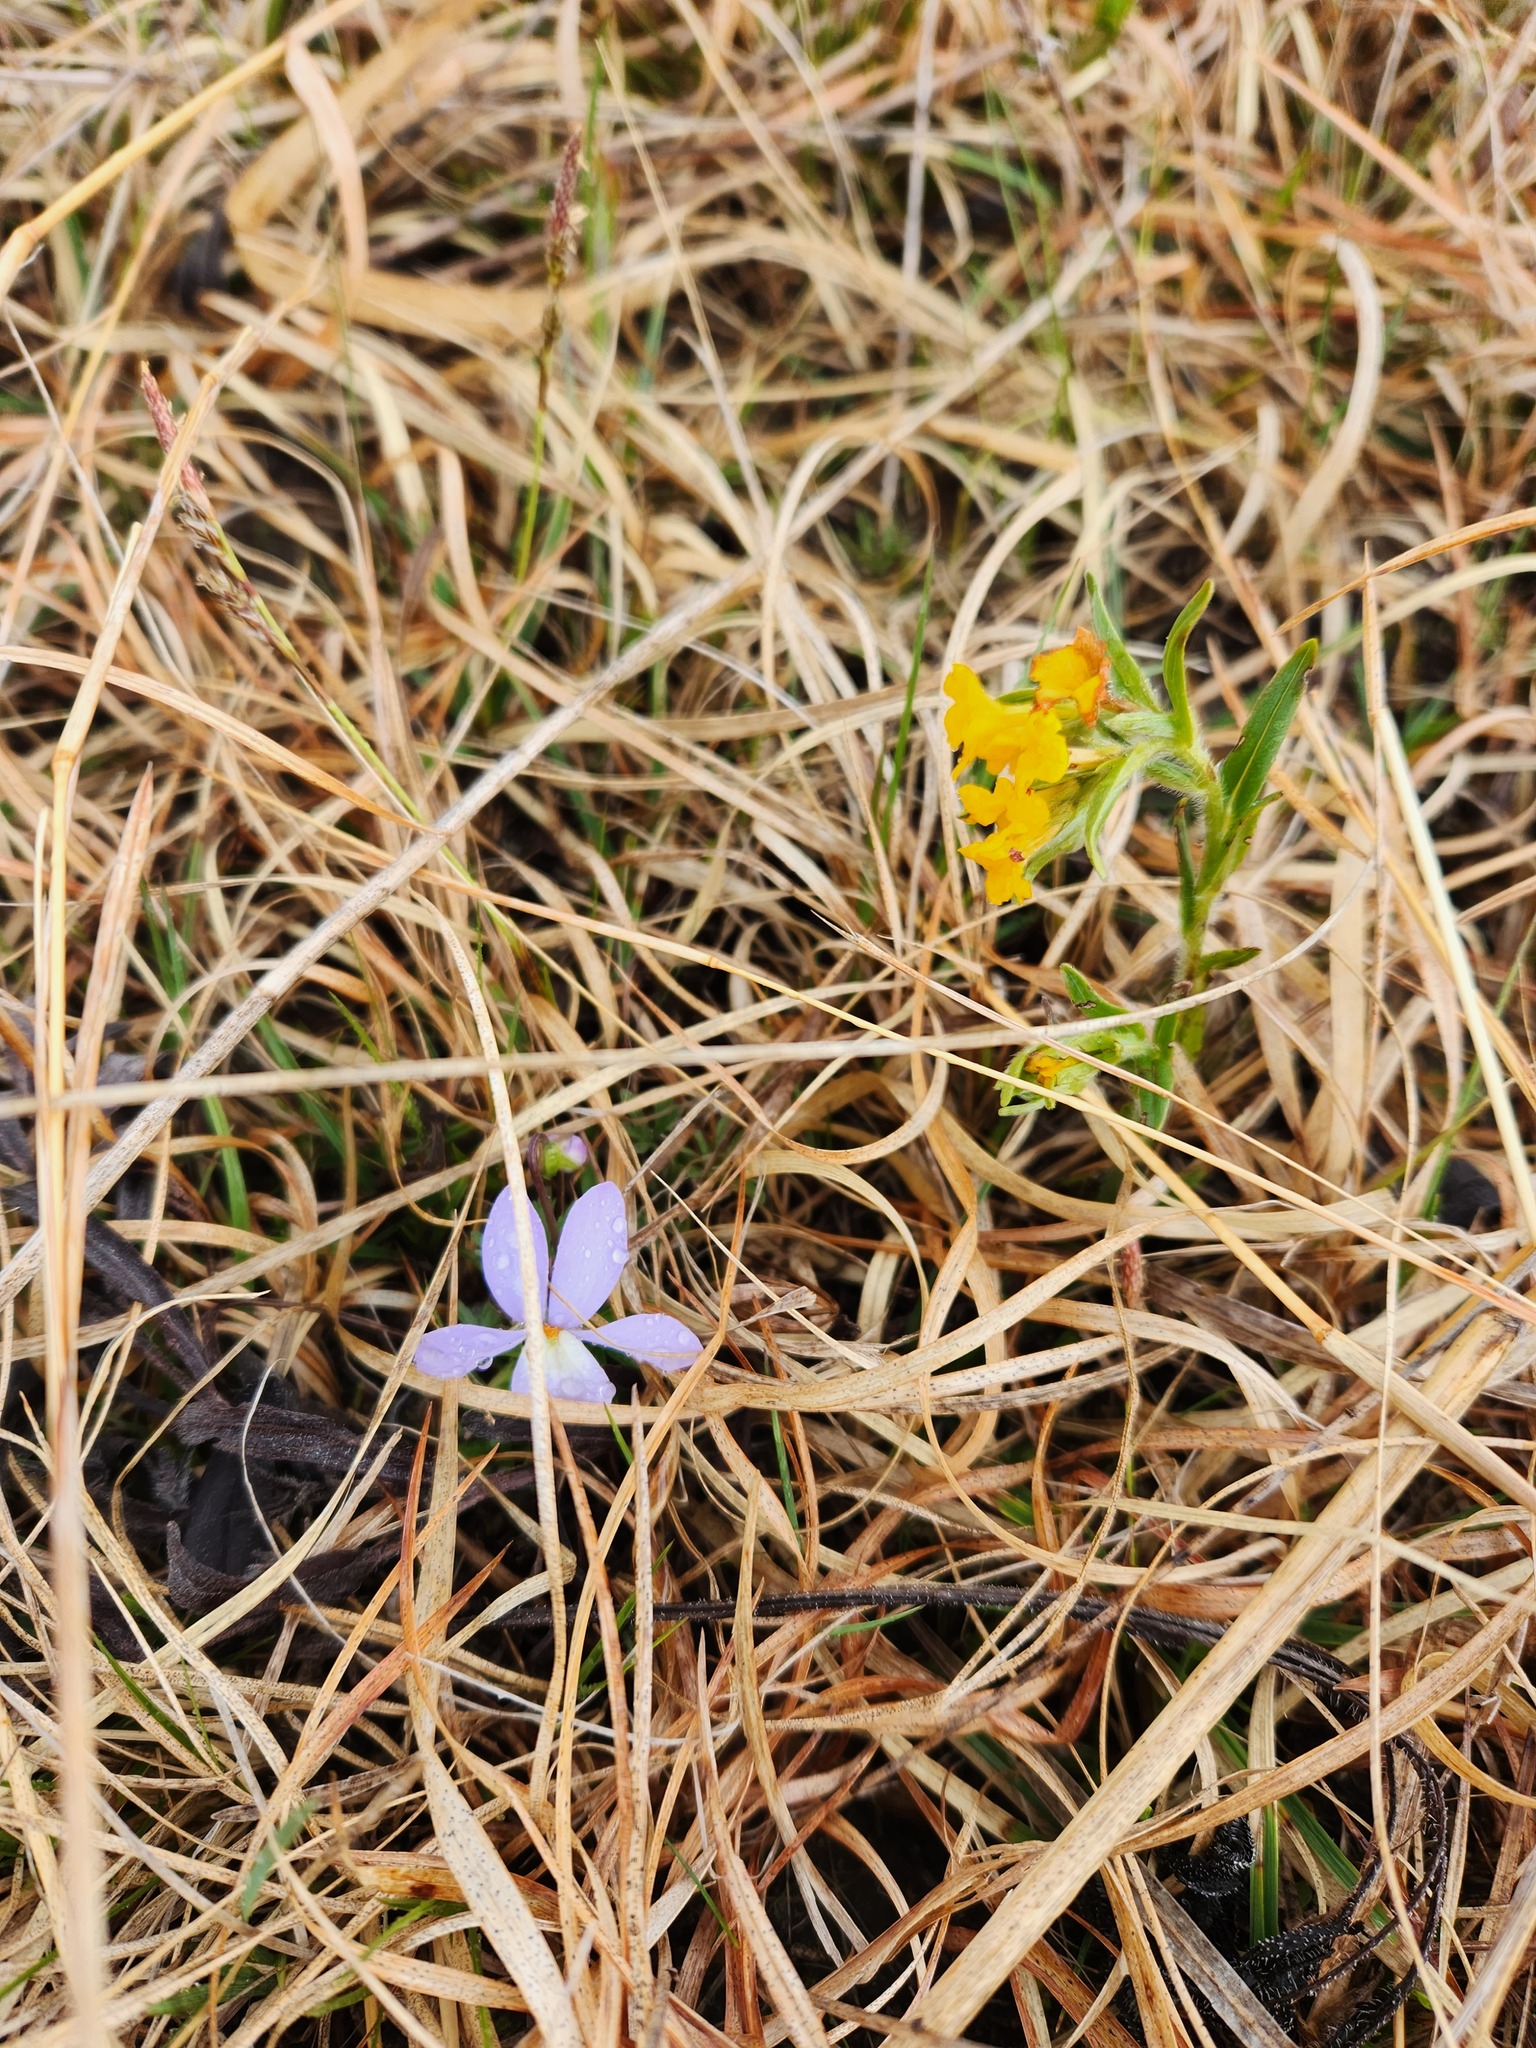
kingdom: Plantae
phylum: Tracheophyta
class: Magnoliopsida
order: Malpighiales
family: Violaceae
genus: Viola
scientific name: Viola pedata
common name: Pansy violet
